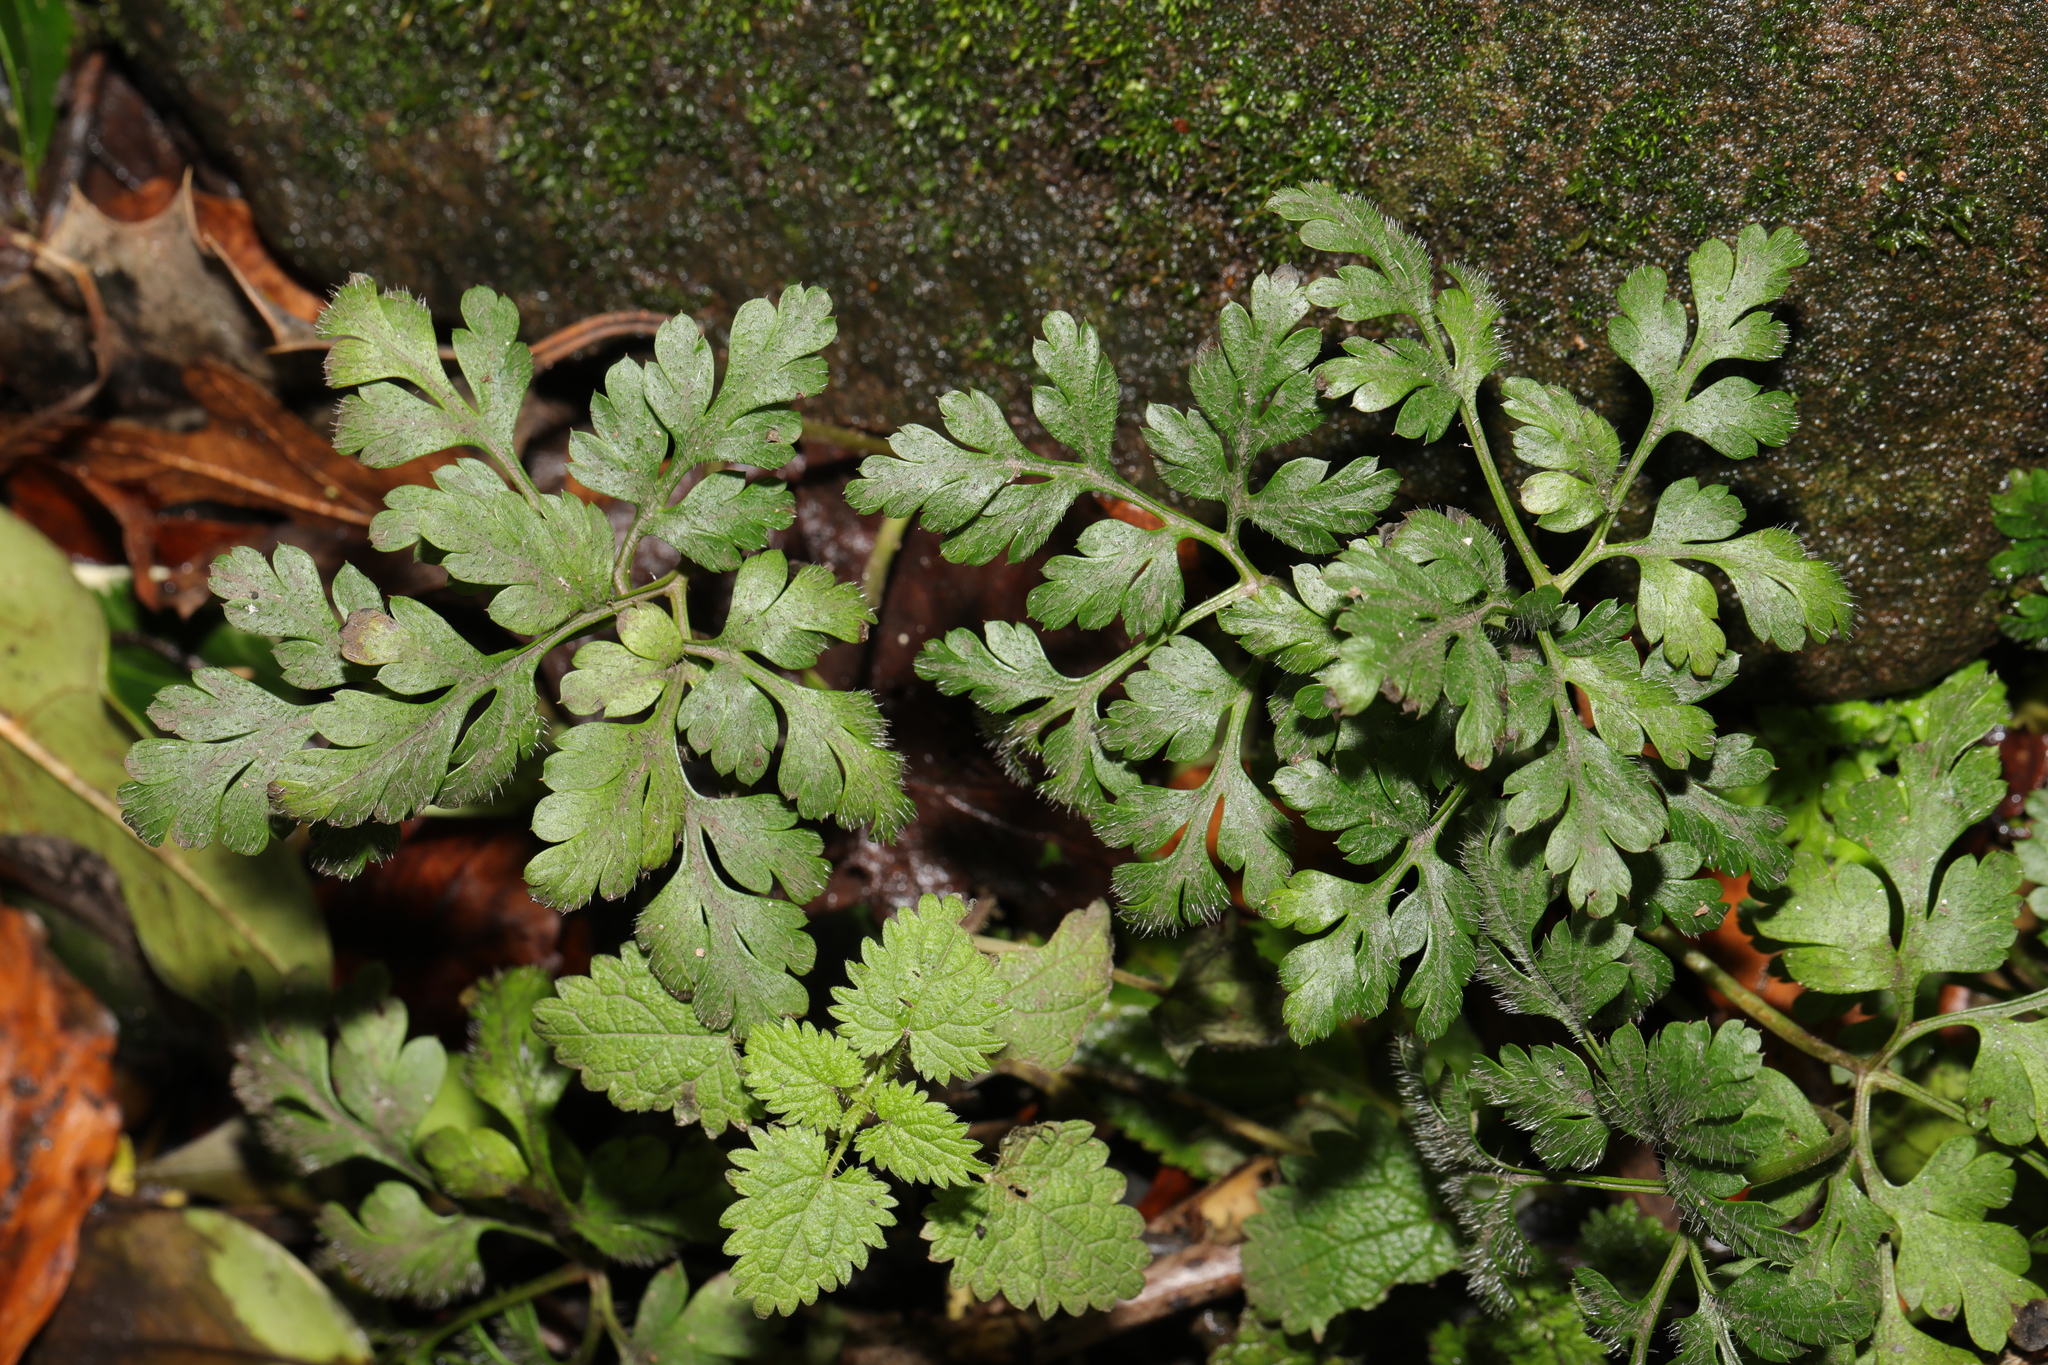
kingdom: Plantae
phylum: Tracheophyta
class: Magnoliopsida
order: Geraniales
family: Geraniaceae
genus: Geranium
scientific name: Geranium robertianum
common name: Herb-robert
